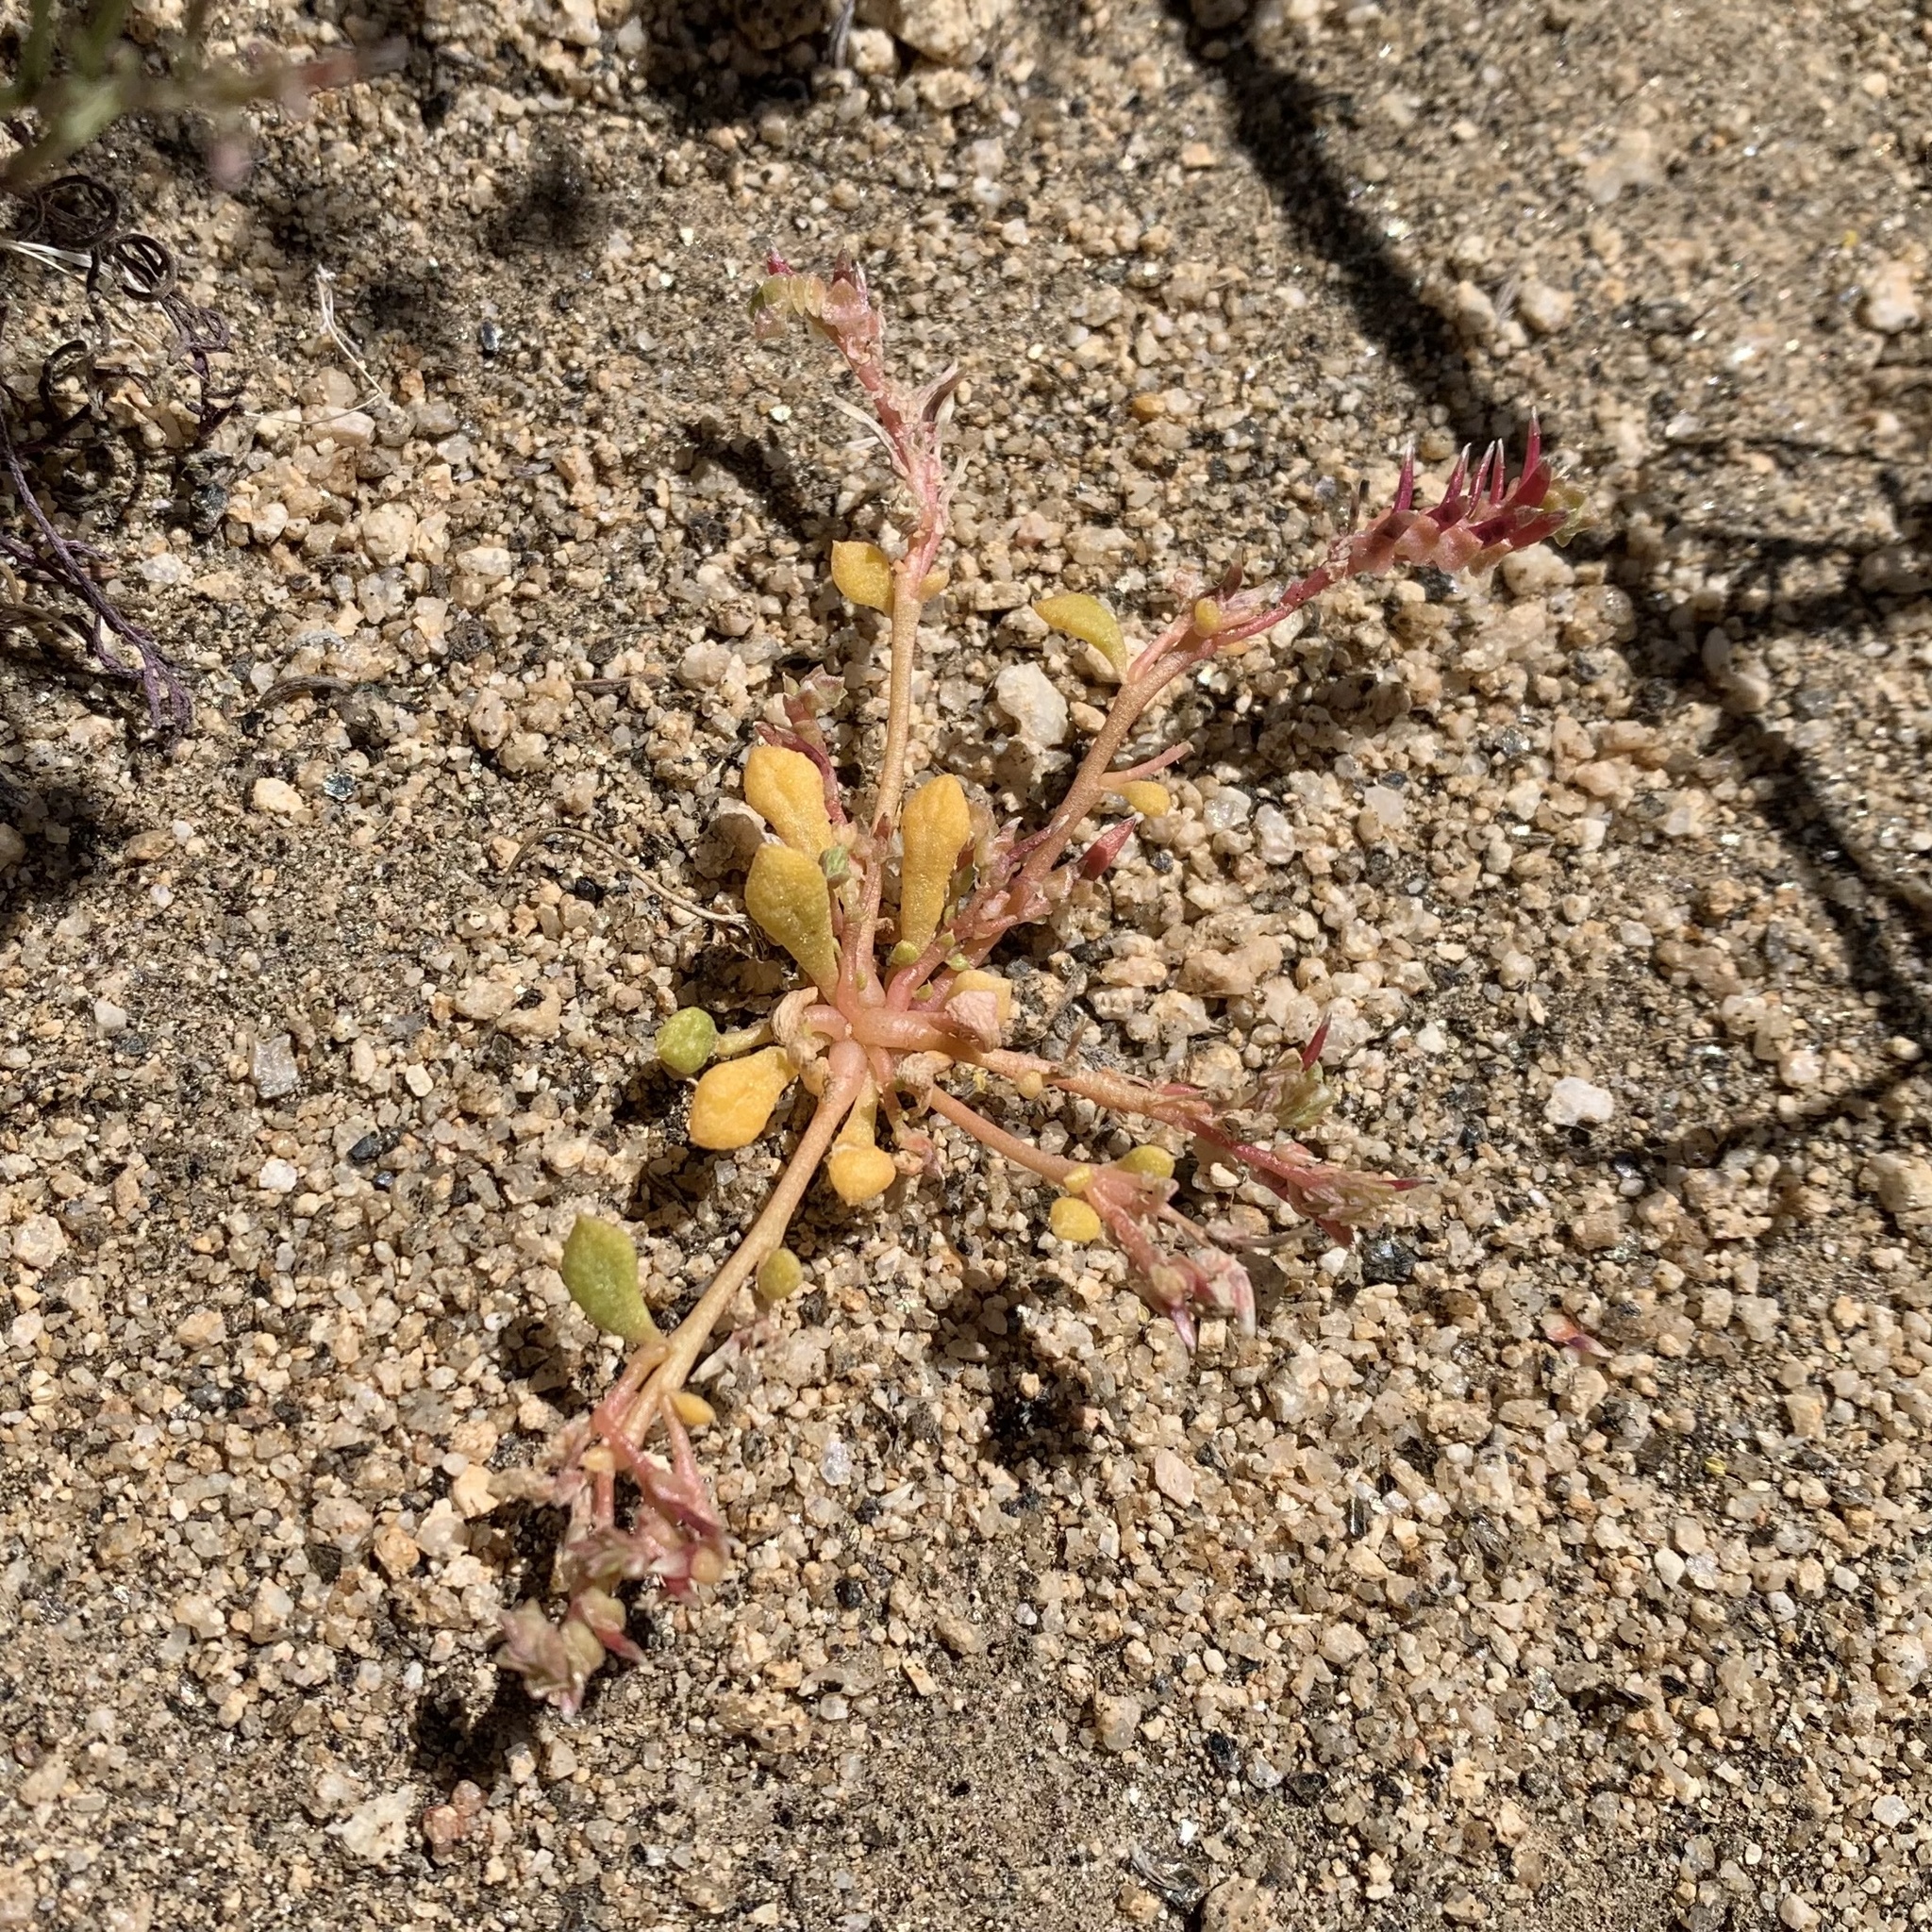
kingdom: Plantae
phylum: Tracheophyta
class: Magnoliopsida
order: Caryophyllales
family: Montiaceae
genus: Calyptridium
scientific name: Calyptridium monandrum
